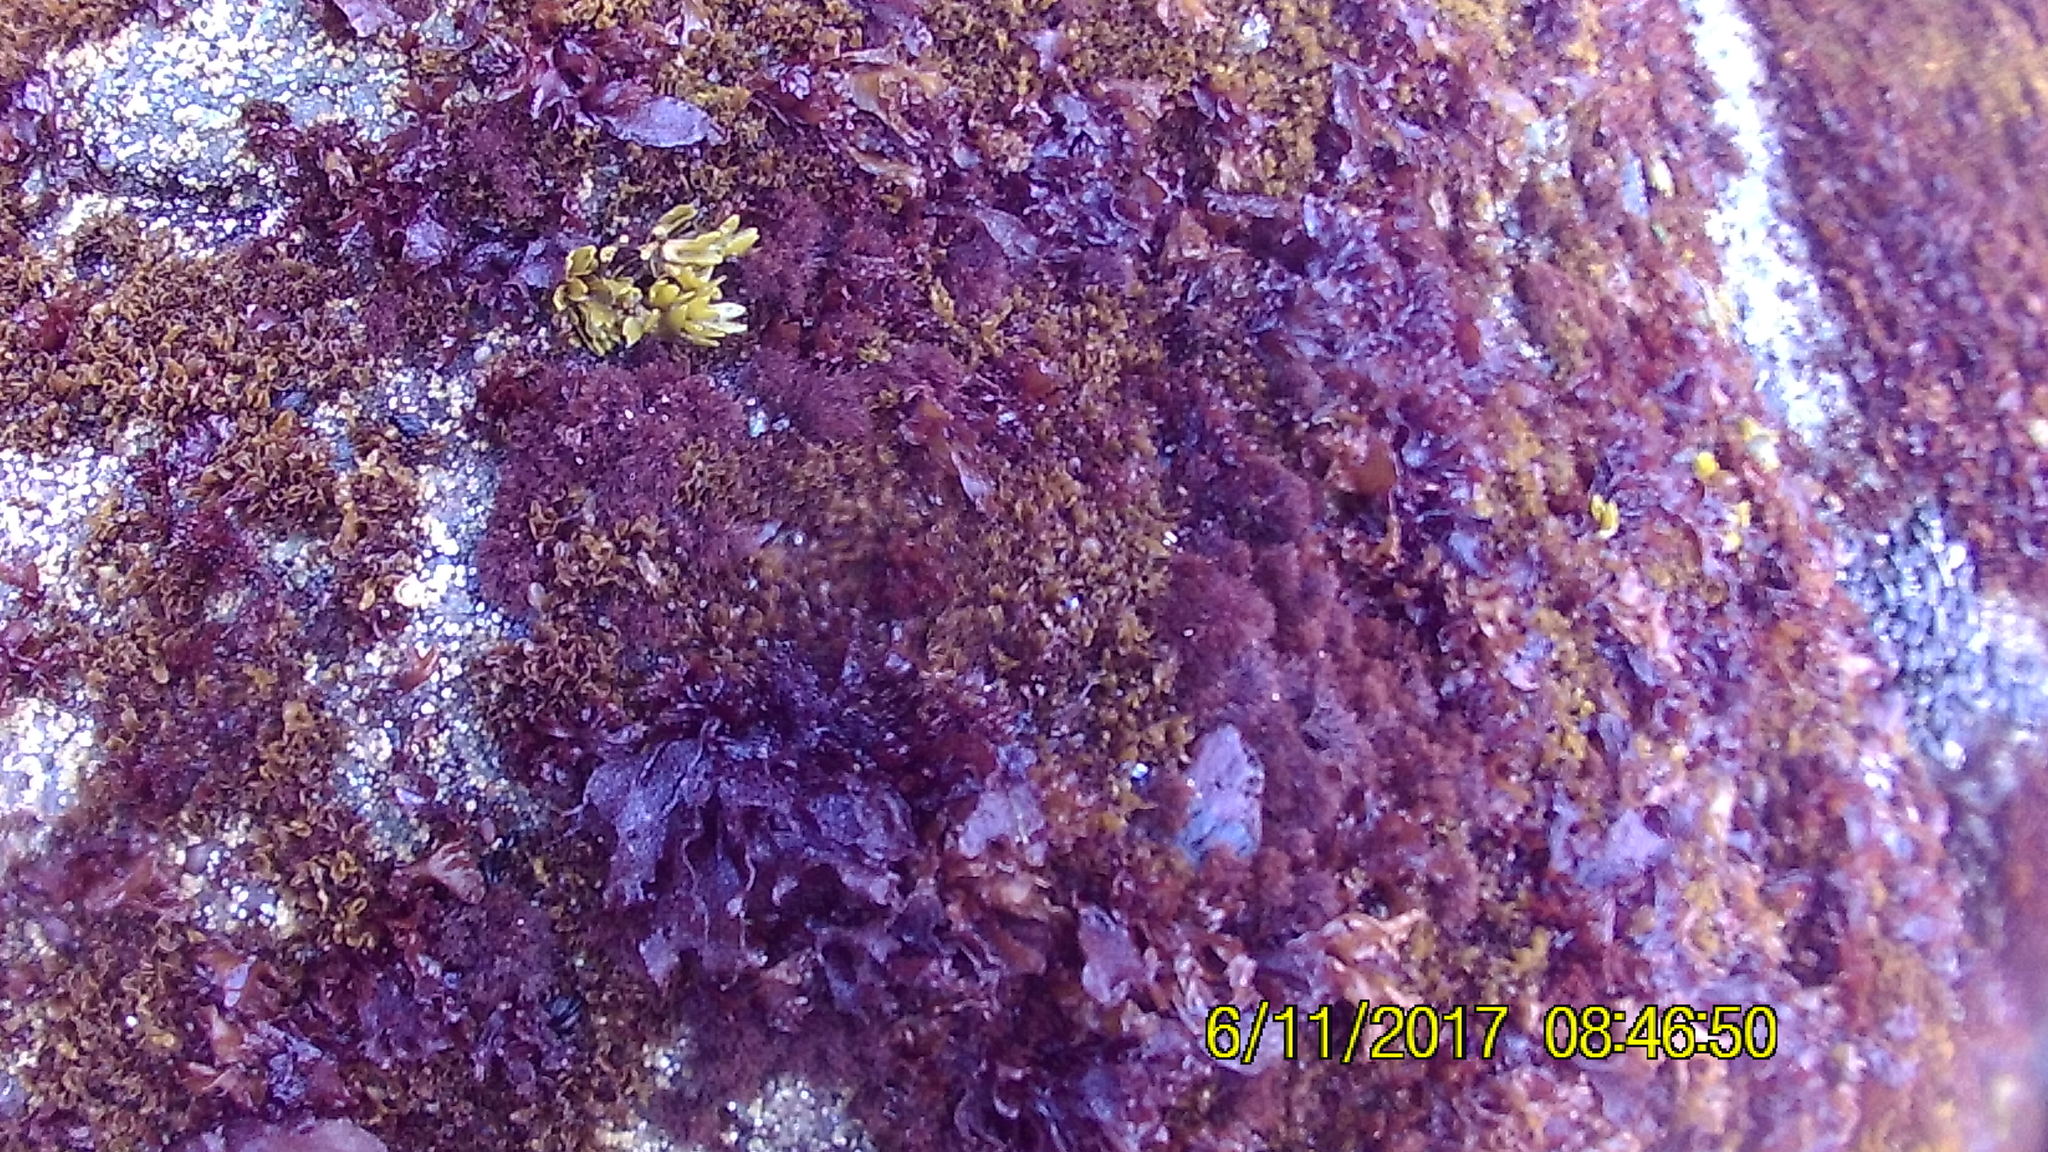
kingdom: Plantae
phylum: Rhodophyta
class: Florideophyceae
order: Gigartinales
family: Phyllophoraceae
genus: Mastocarpus
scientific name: Mastocarpus papillatus
